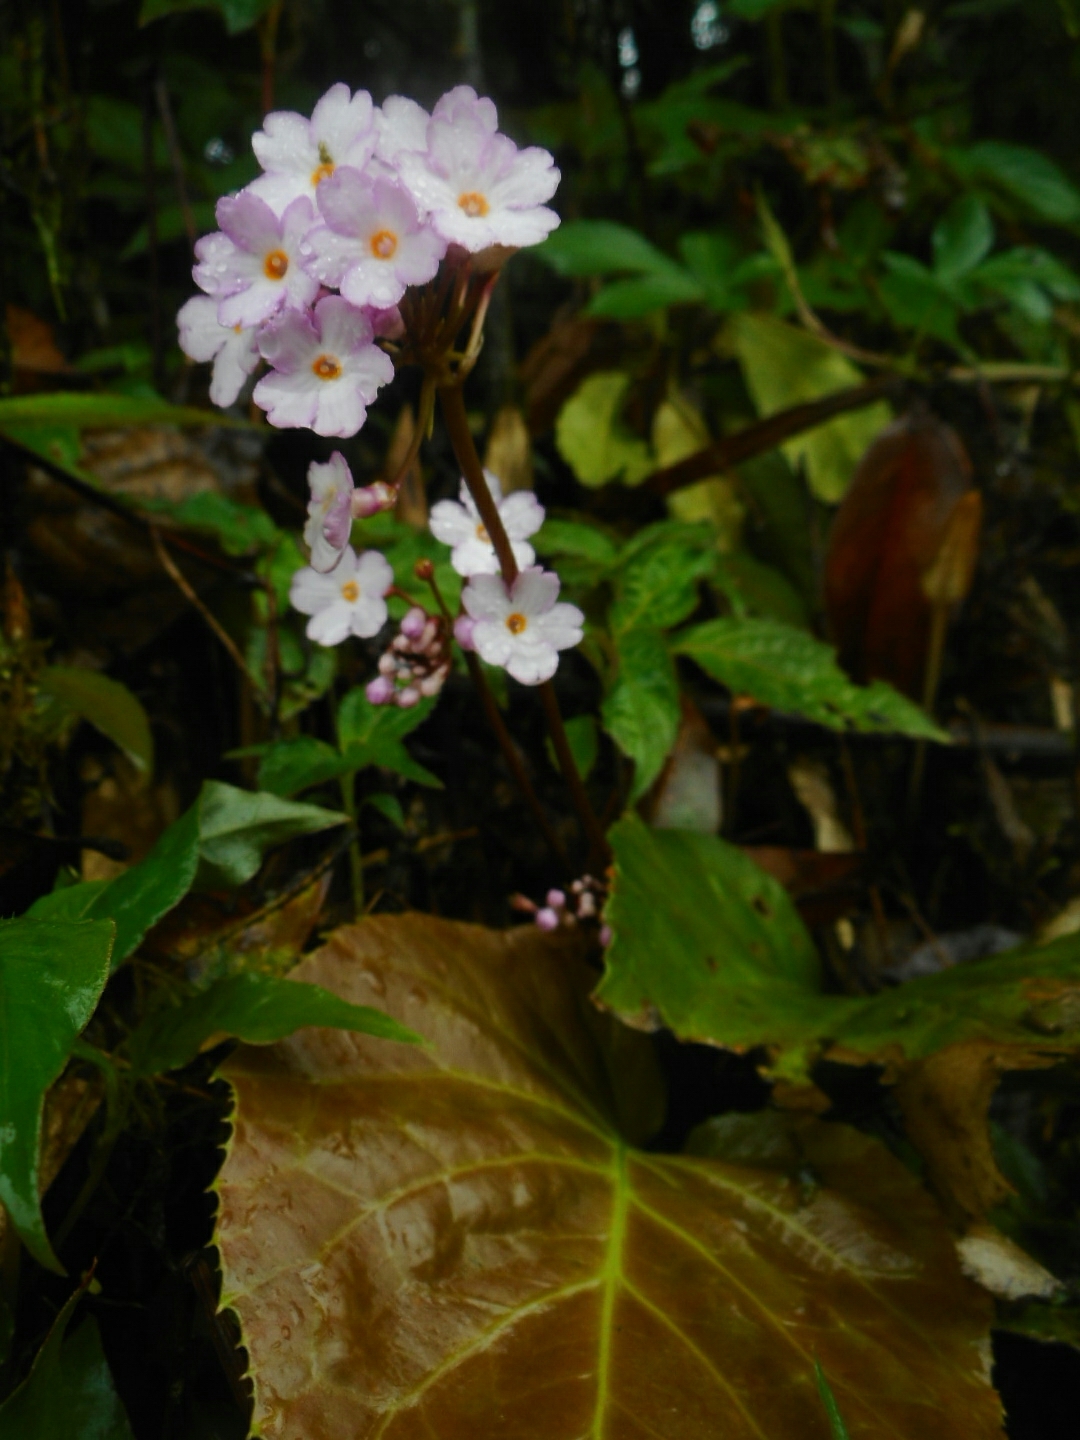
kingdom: Plantae
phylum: Tracheophyta
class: Magnoliopsida
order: Ericales
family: Primulaceae
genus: Primula
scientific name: Primula carolinehenryae
